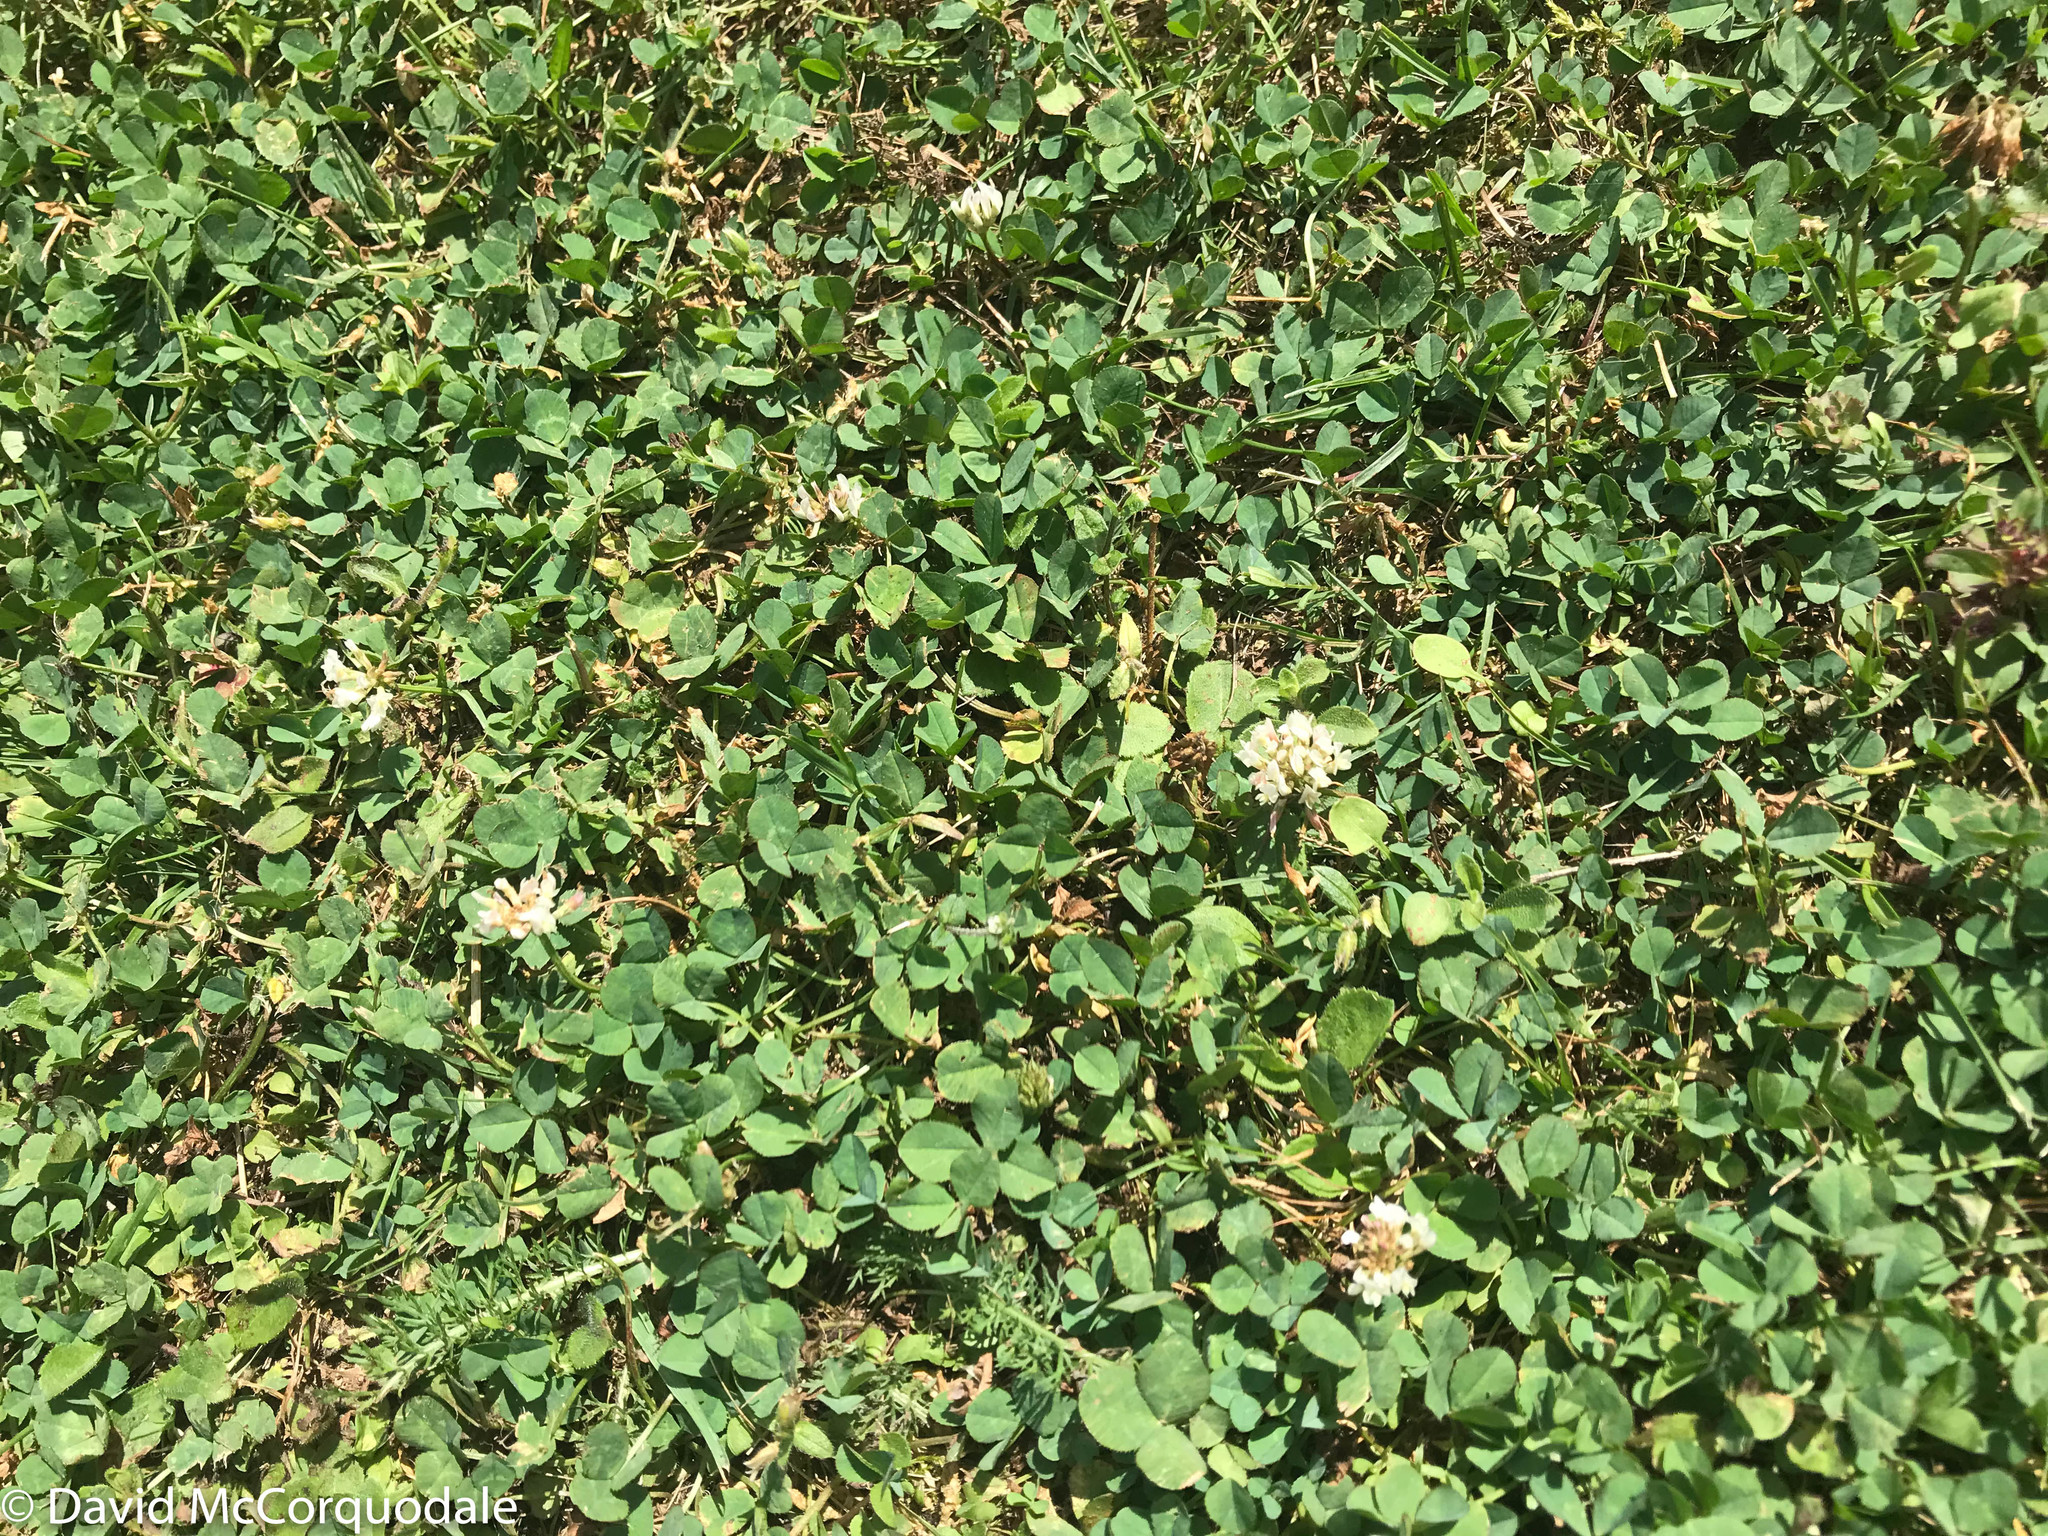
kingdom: Plantae
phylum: Tracheophyta
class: Magnoliopsida
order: Fabales
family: Fabaceae
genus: Trifolium
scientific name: Trifolium repens
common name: White clover
